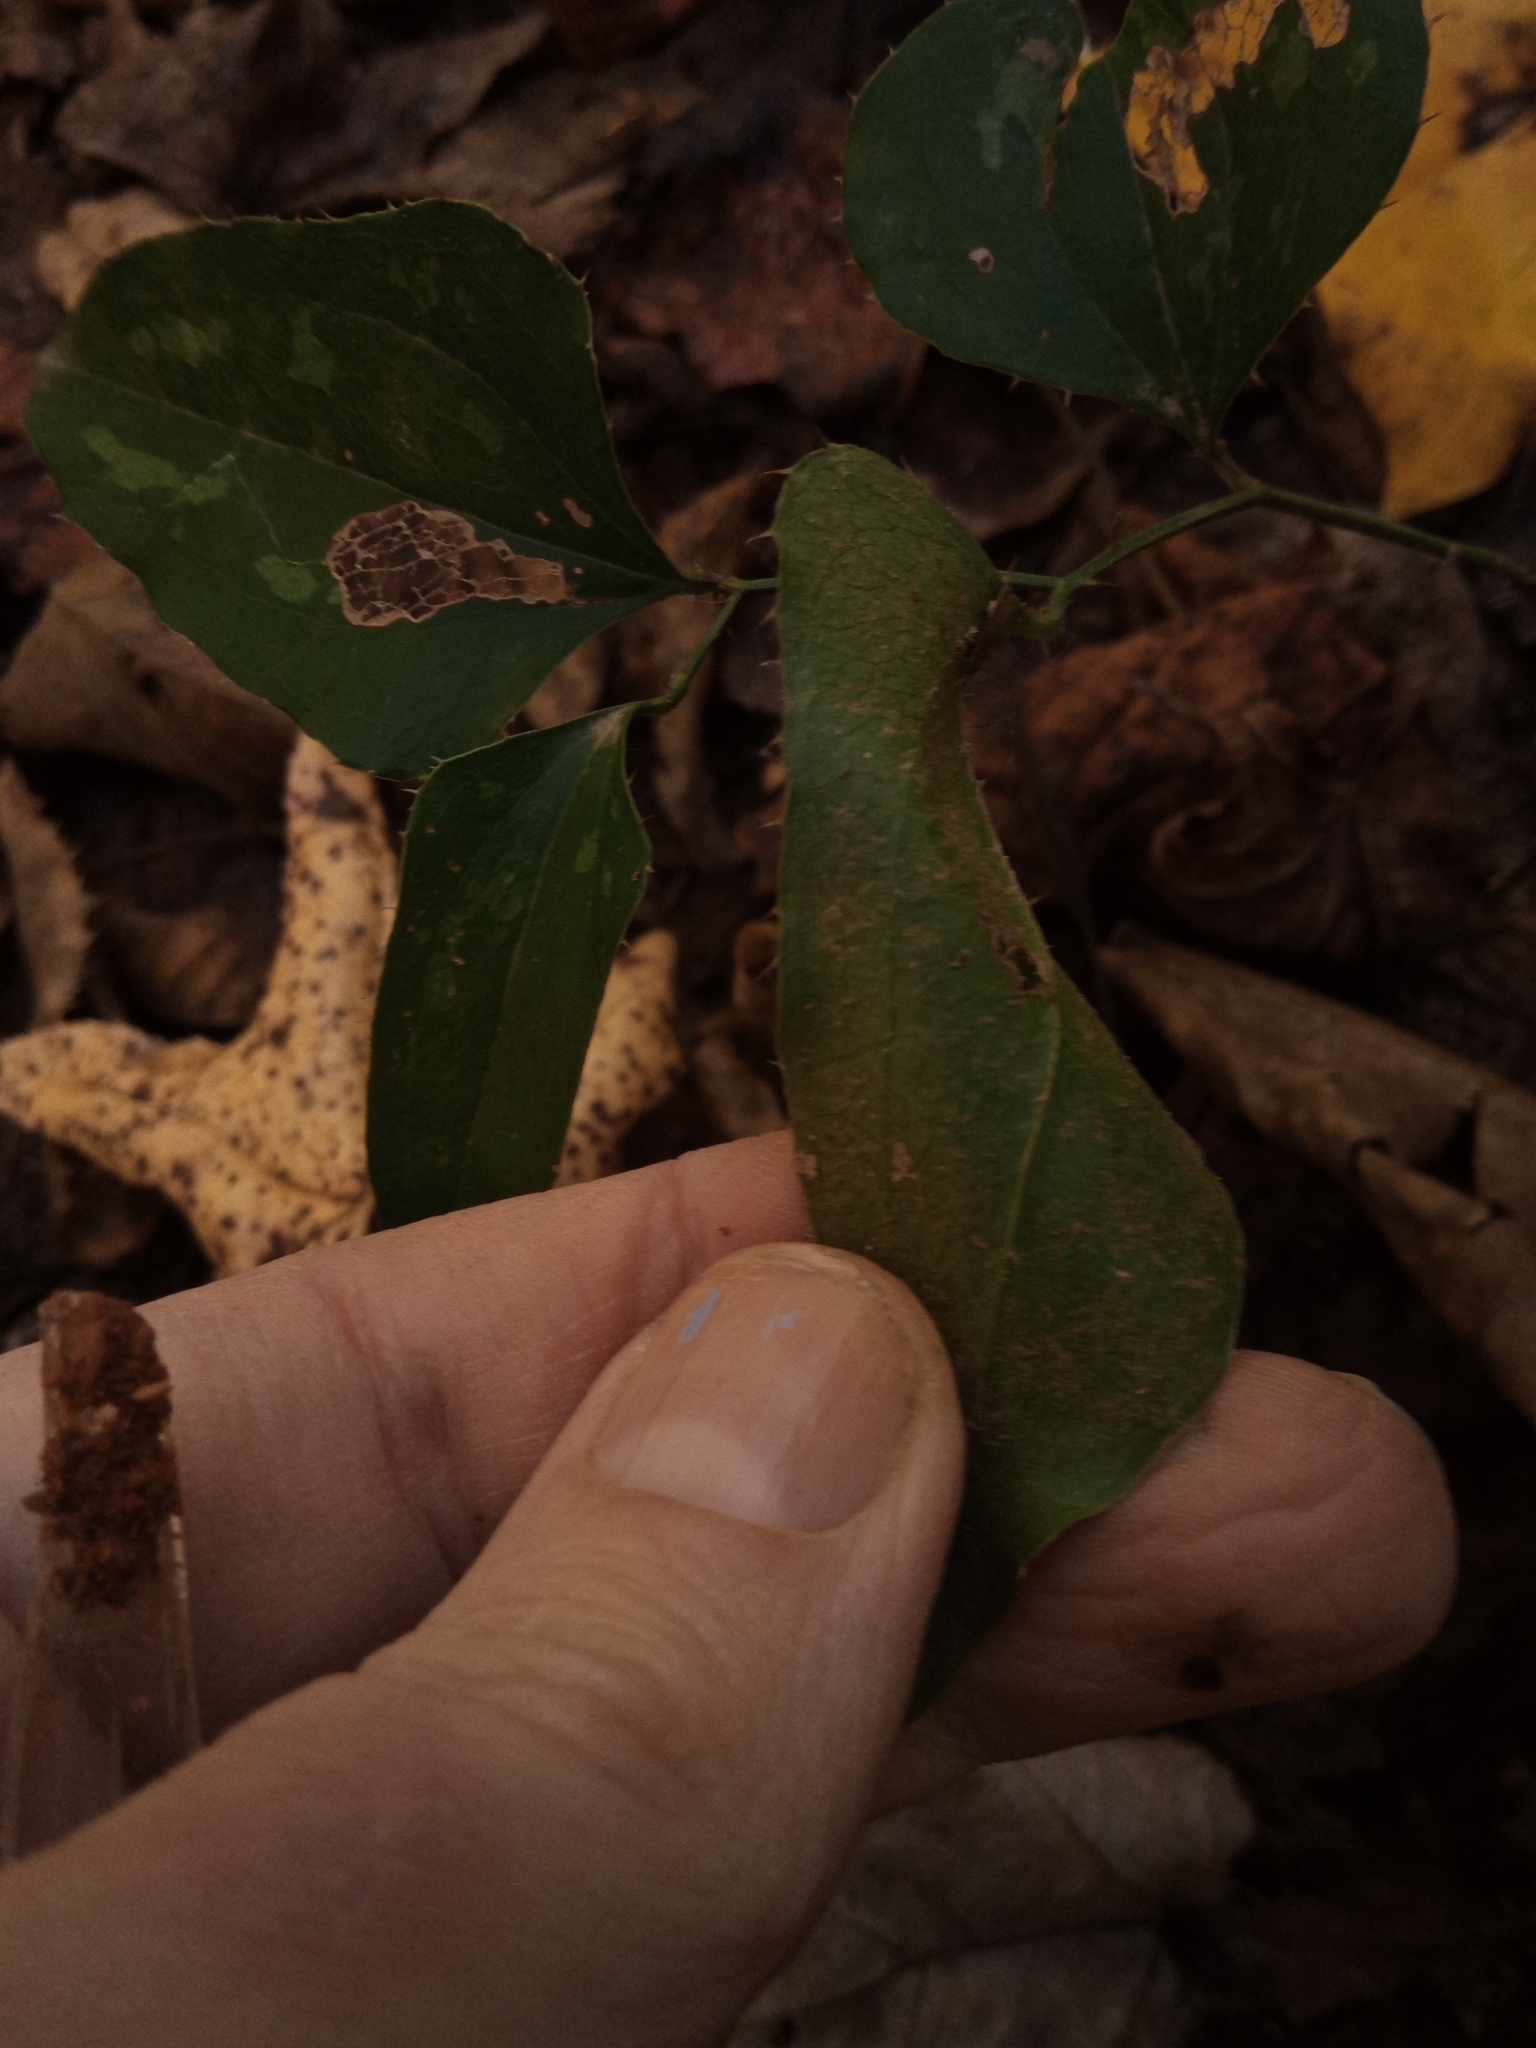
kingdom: Plantae
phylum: Tracheophyta
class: Liliopsida
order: Liliales
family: Smilacaceae
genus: Smilax
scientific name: Smilax bona-nox
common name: Catbrier
